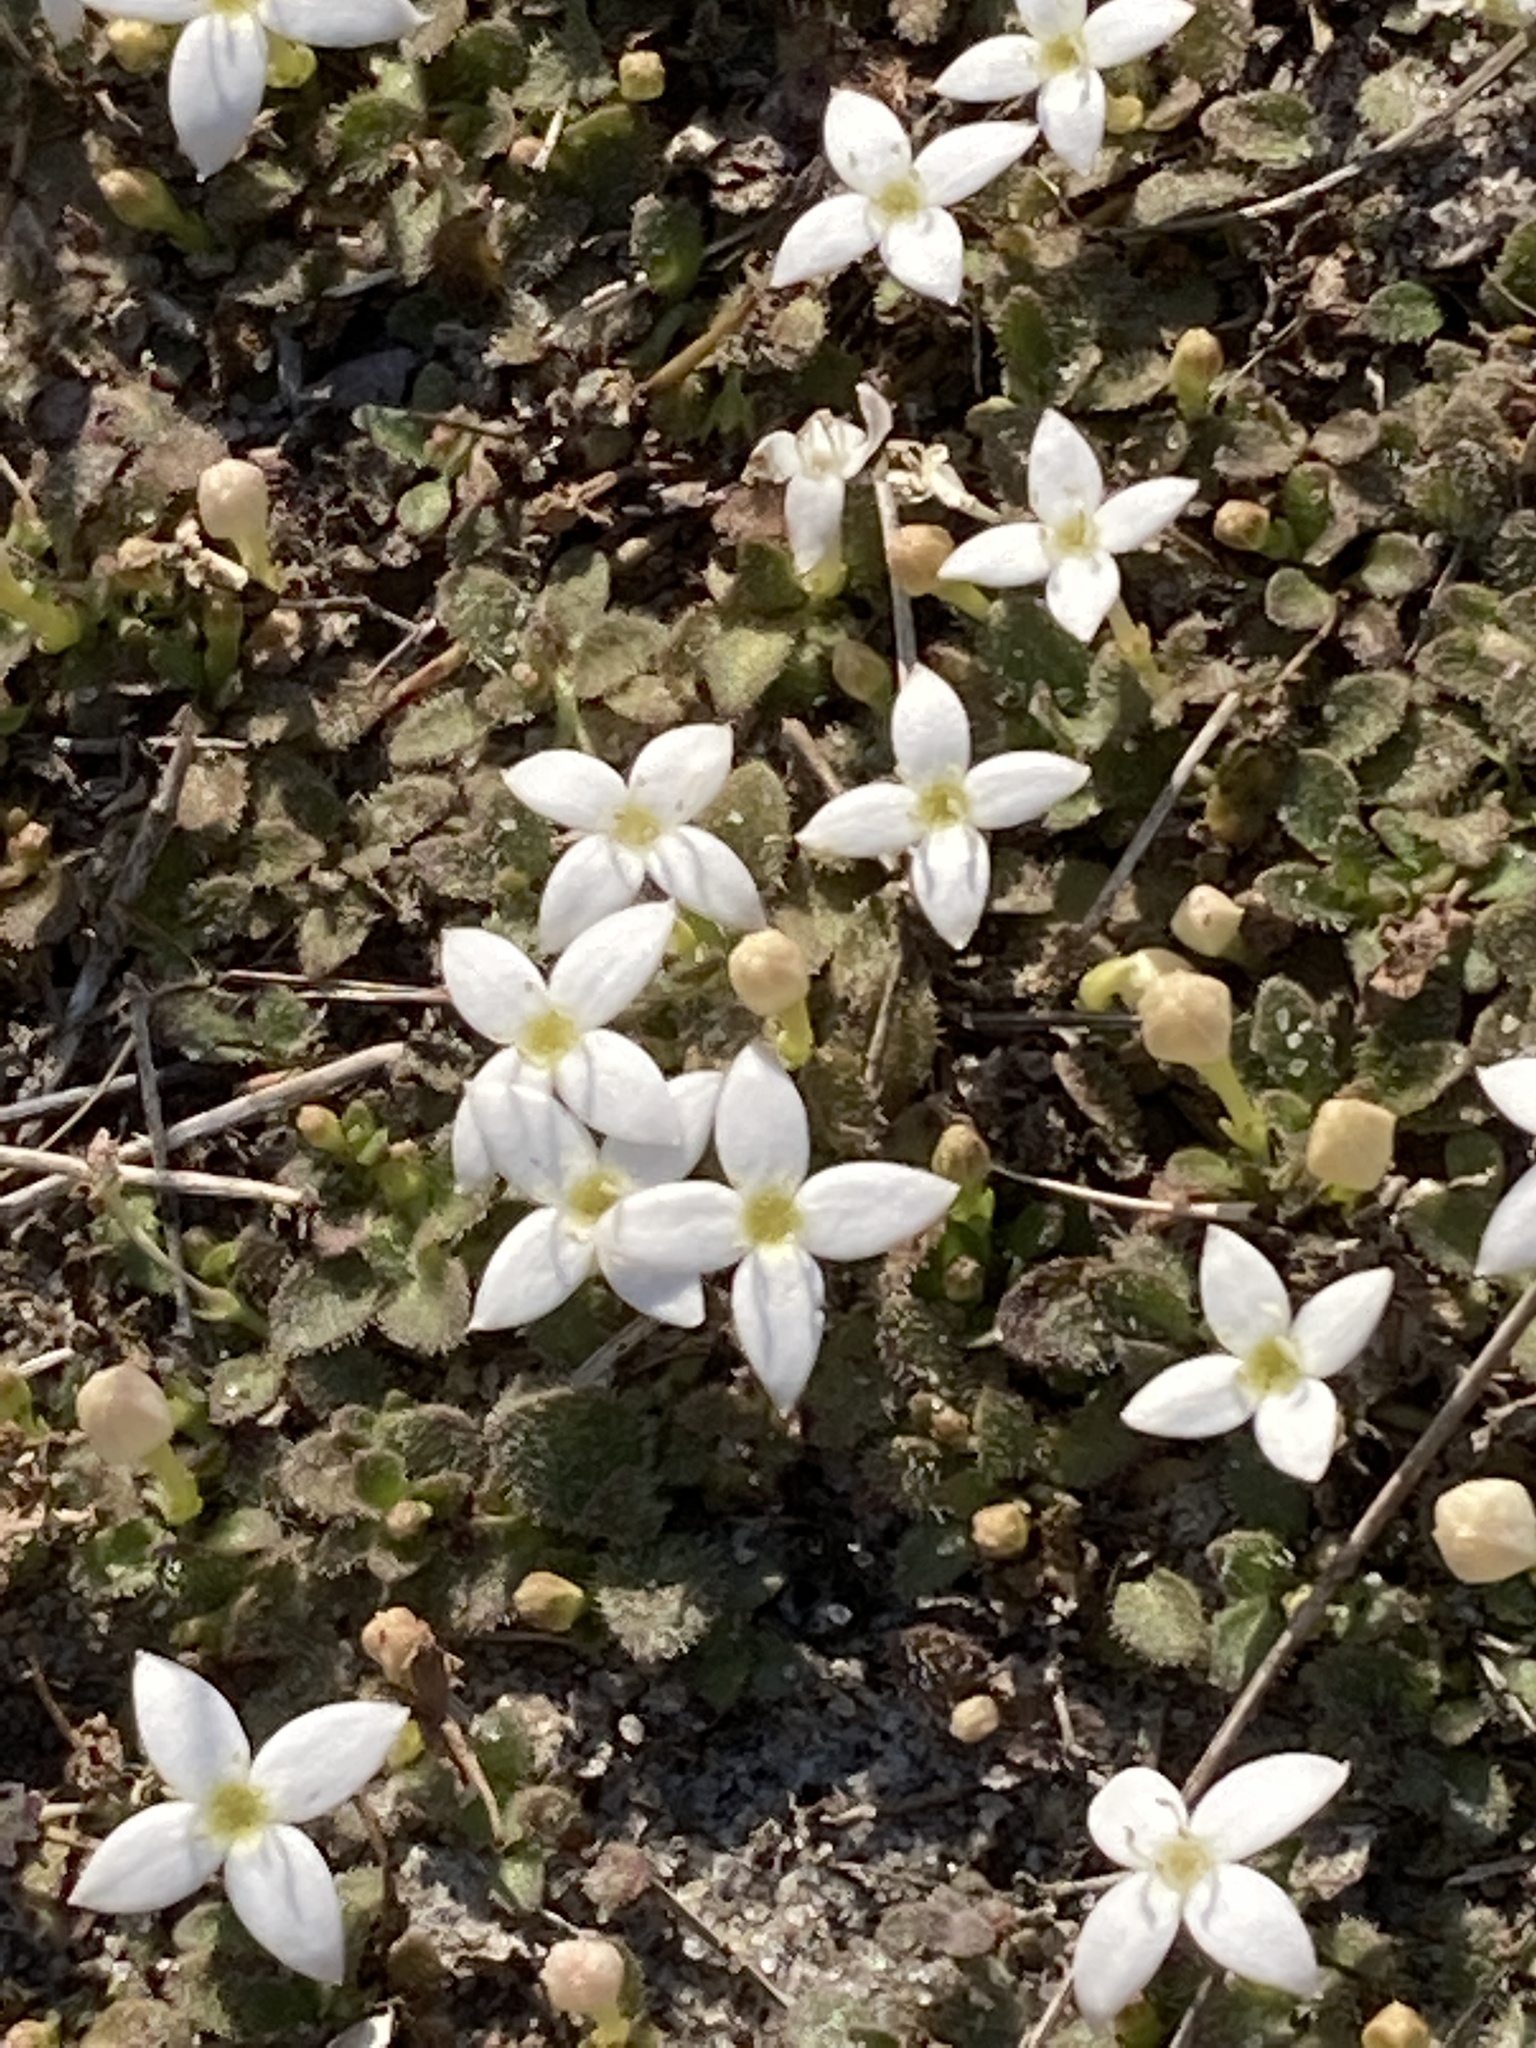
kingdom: Plantae
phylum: Tracheophyta
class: Magnoliopsida
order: Gentianales
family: Rubiaceae
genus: Houstonia
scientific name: Houstonia procumbens
